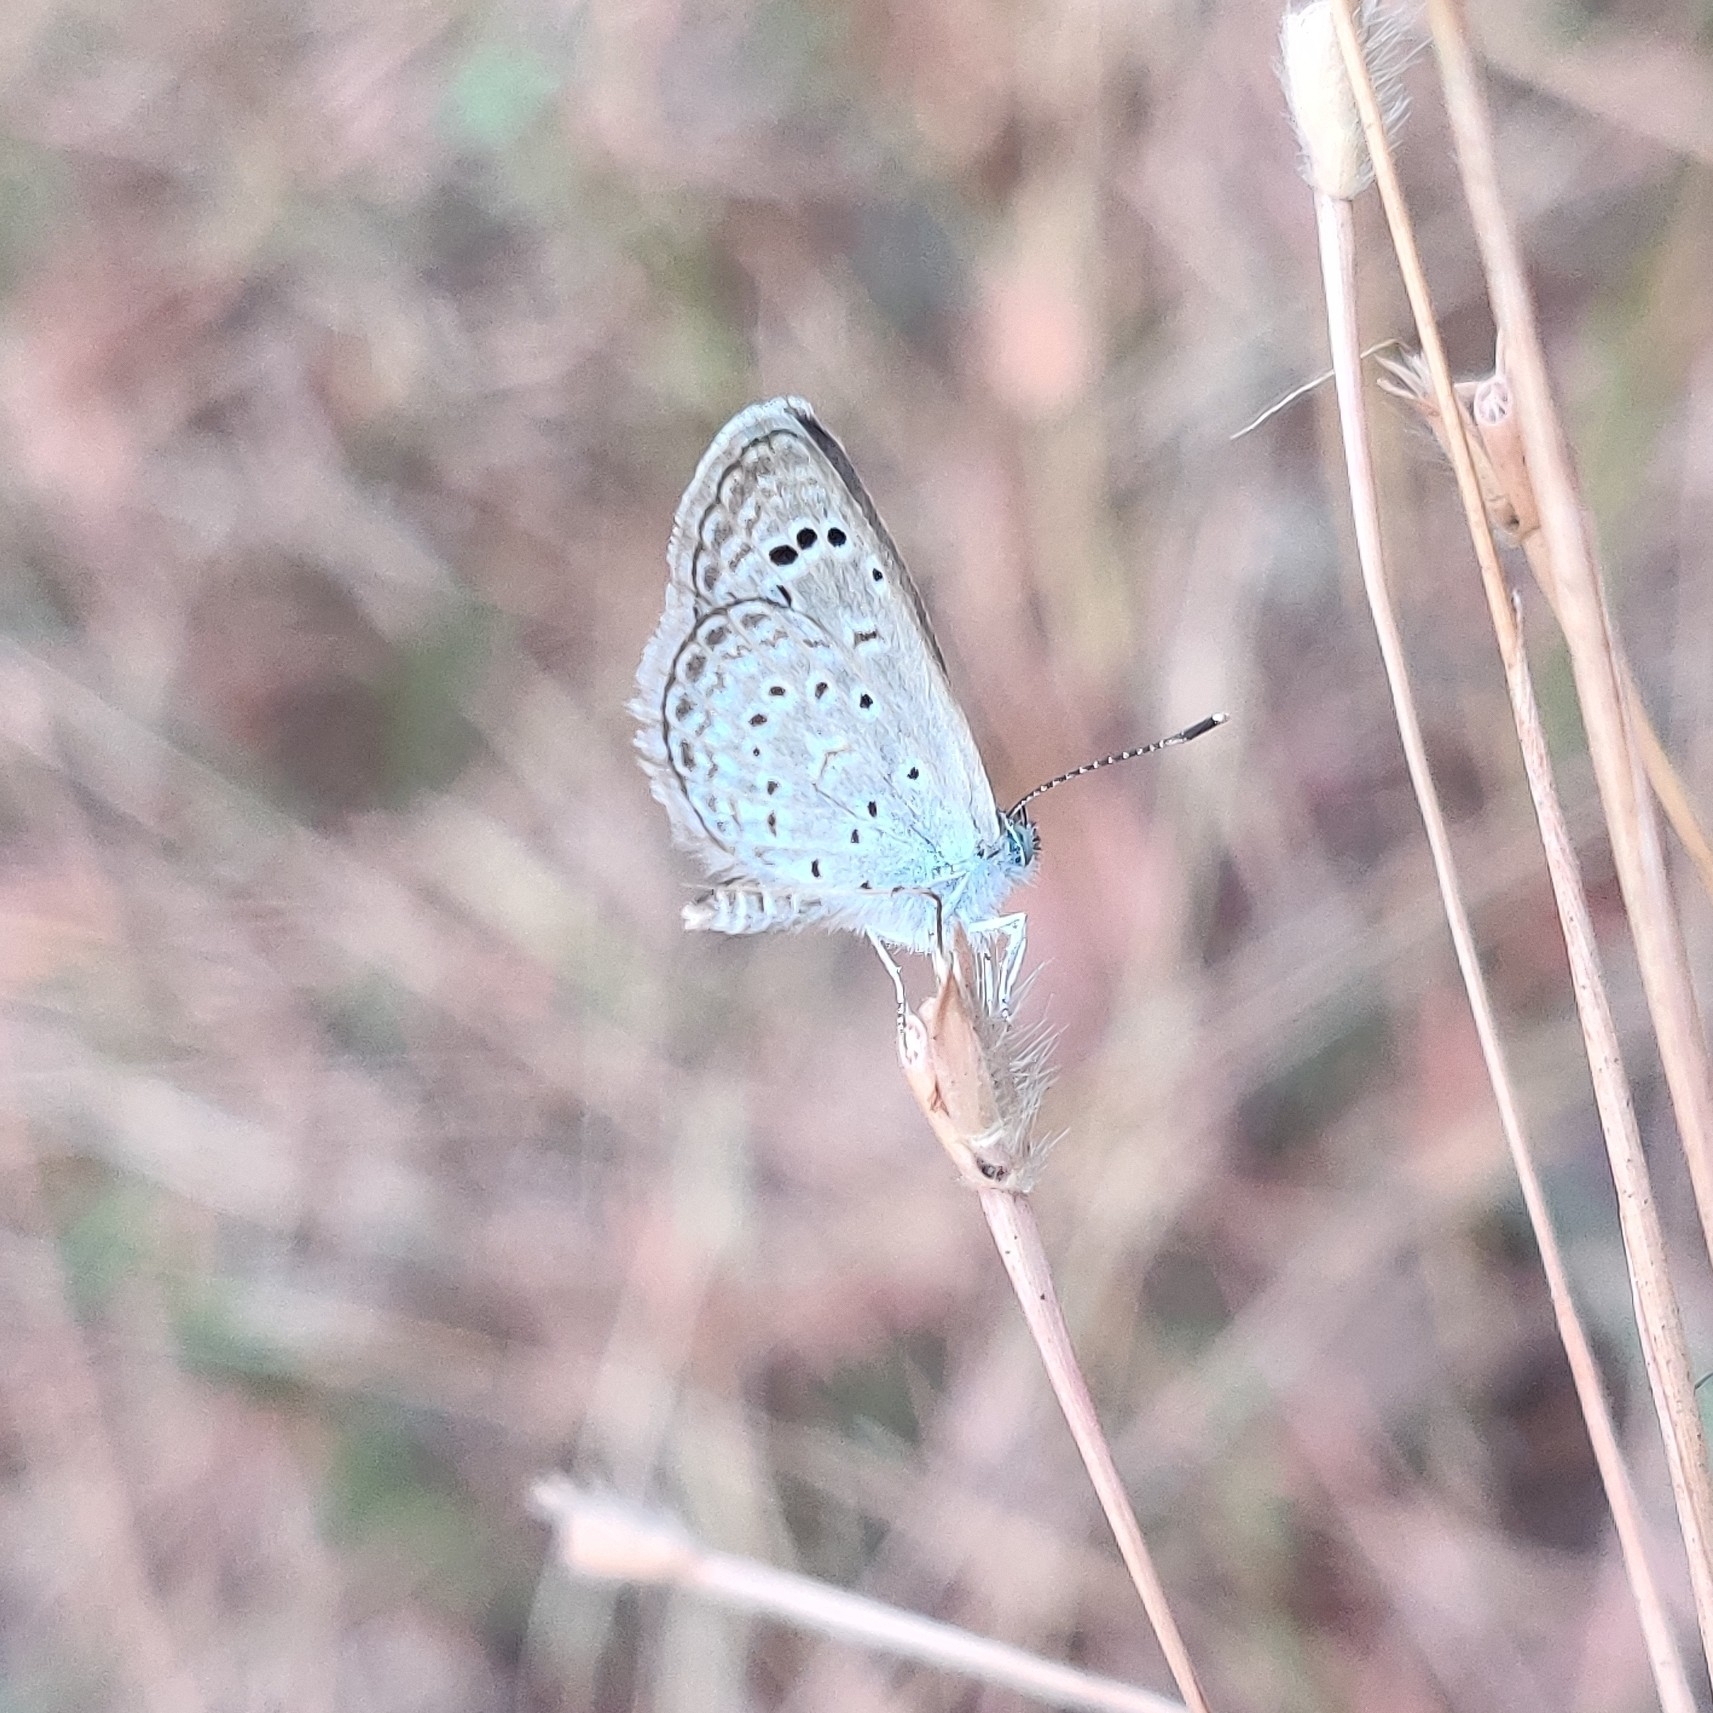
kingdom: Animalia
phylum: Arthropoda
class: Insecta
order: Lepidoptera
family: Lycaenidae
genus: Zizeeria
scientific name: Zizeeria karsandra
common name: Dark grass blue
